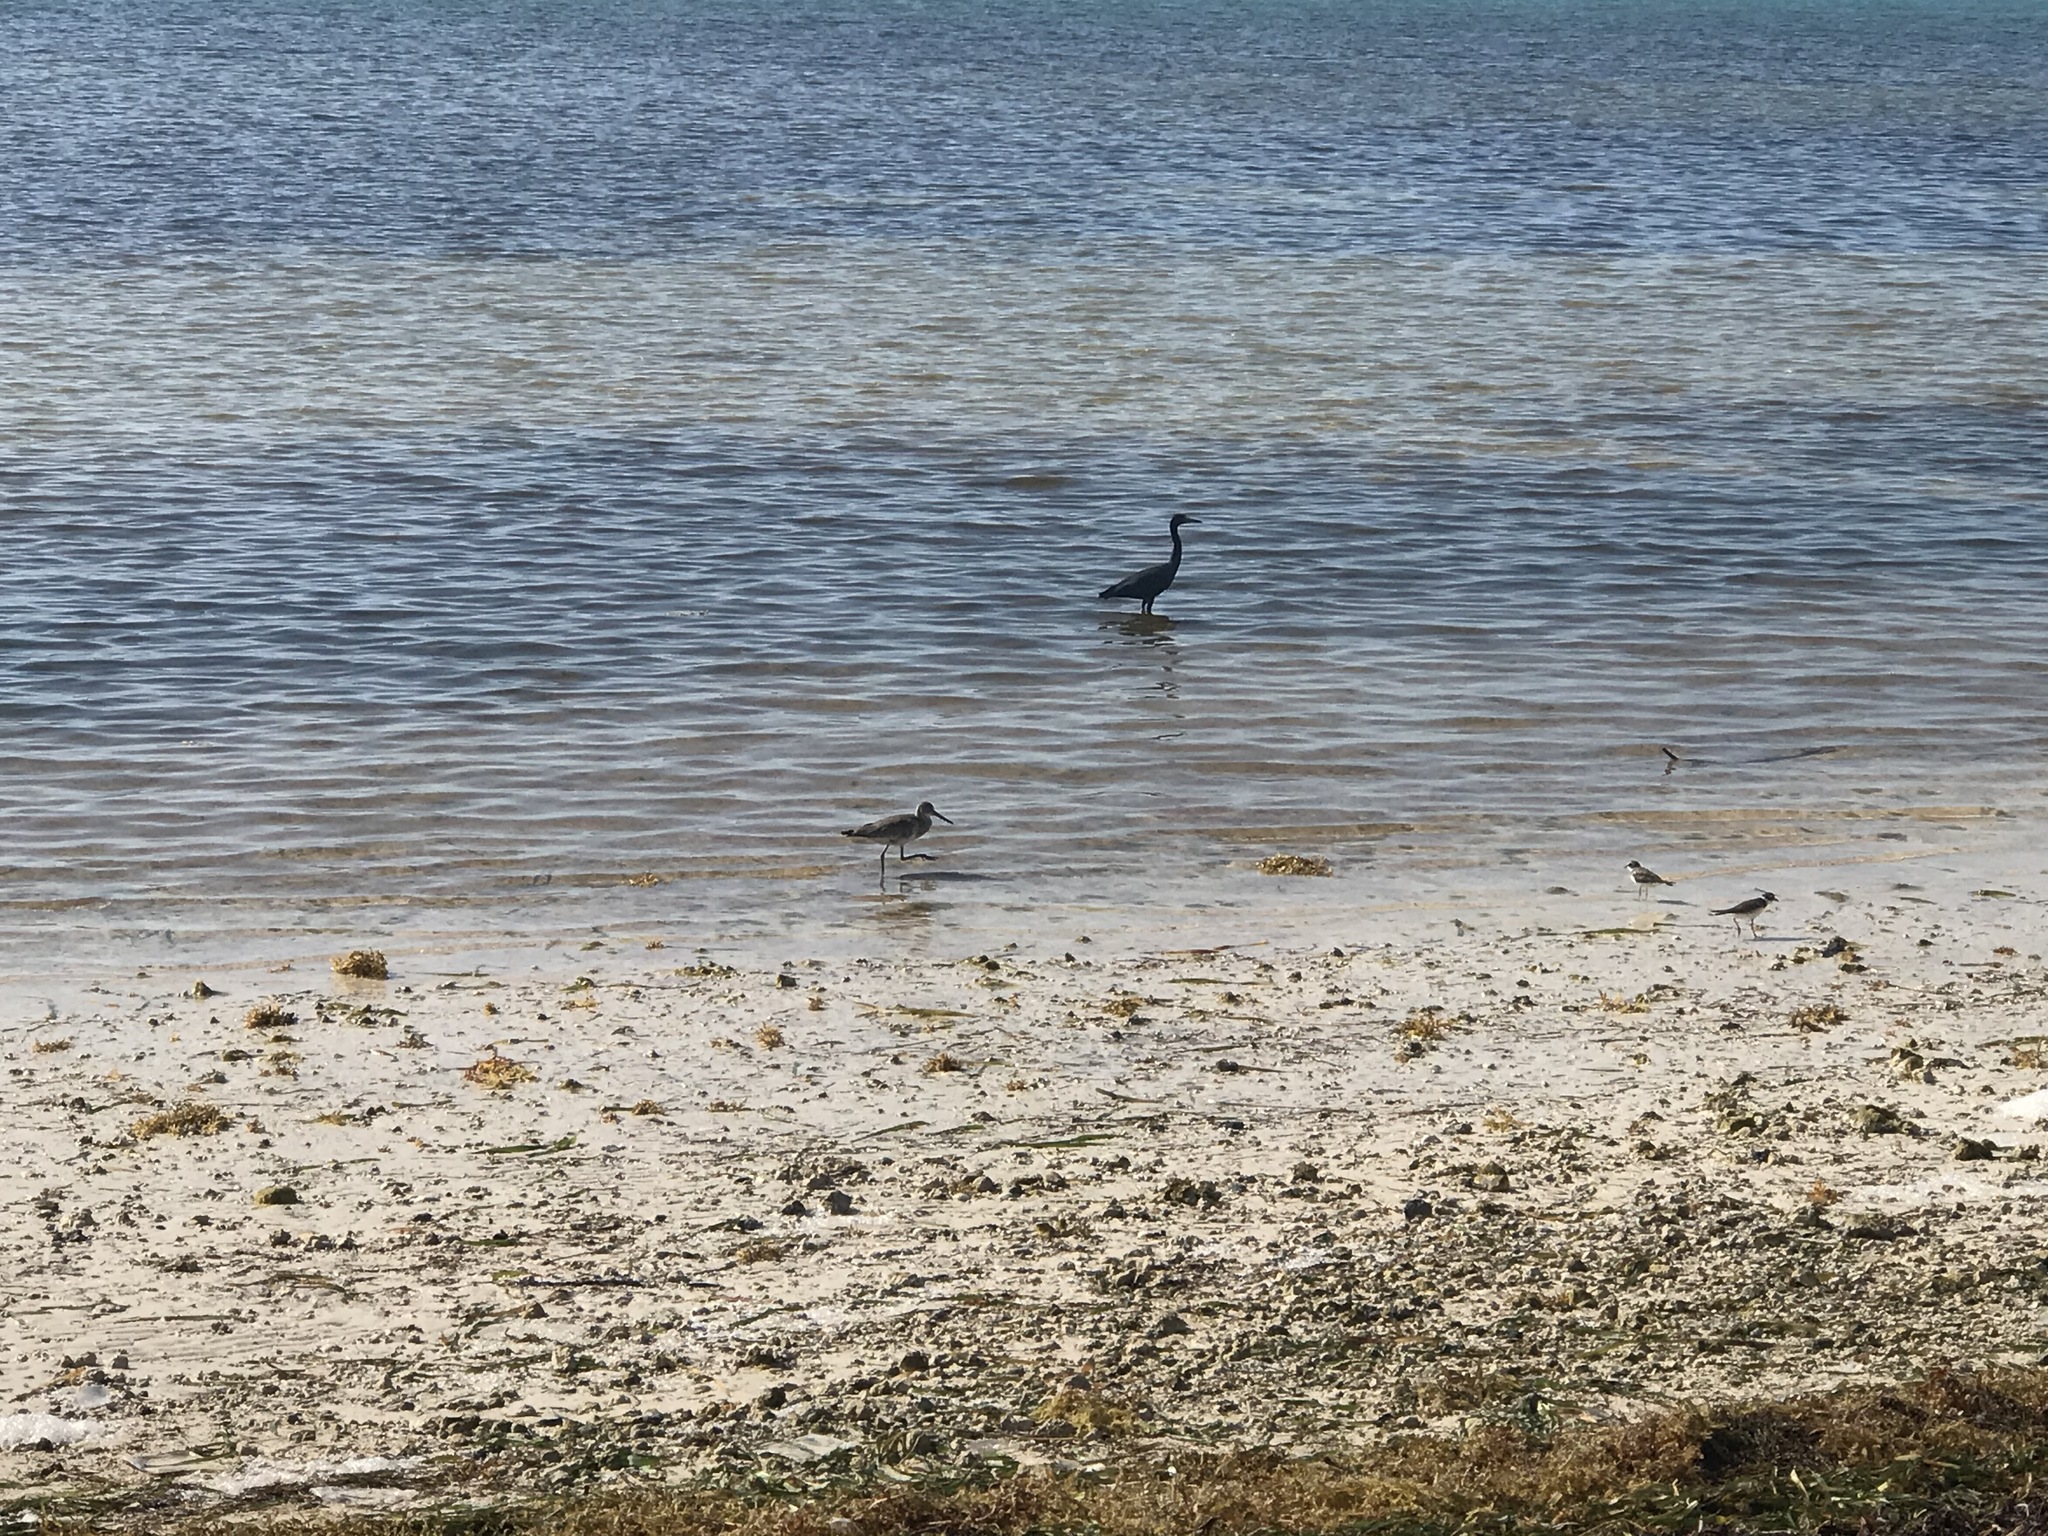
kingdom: Animalia
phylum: Chordata
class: Aves
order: Charadriiformes
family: Scolopacidae
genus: Tringa
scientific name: Tringa semipalmata
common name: Willet
